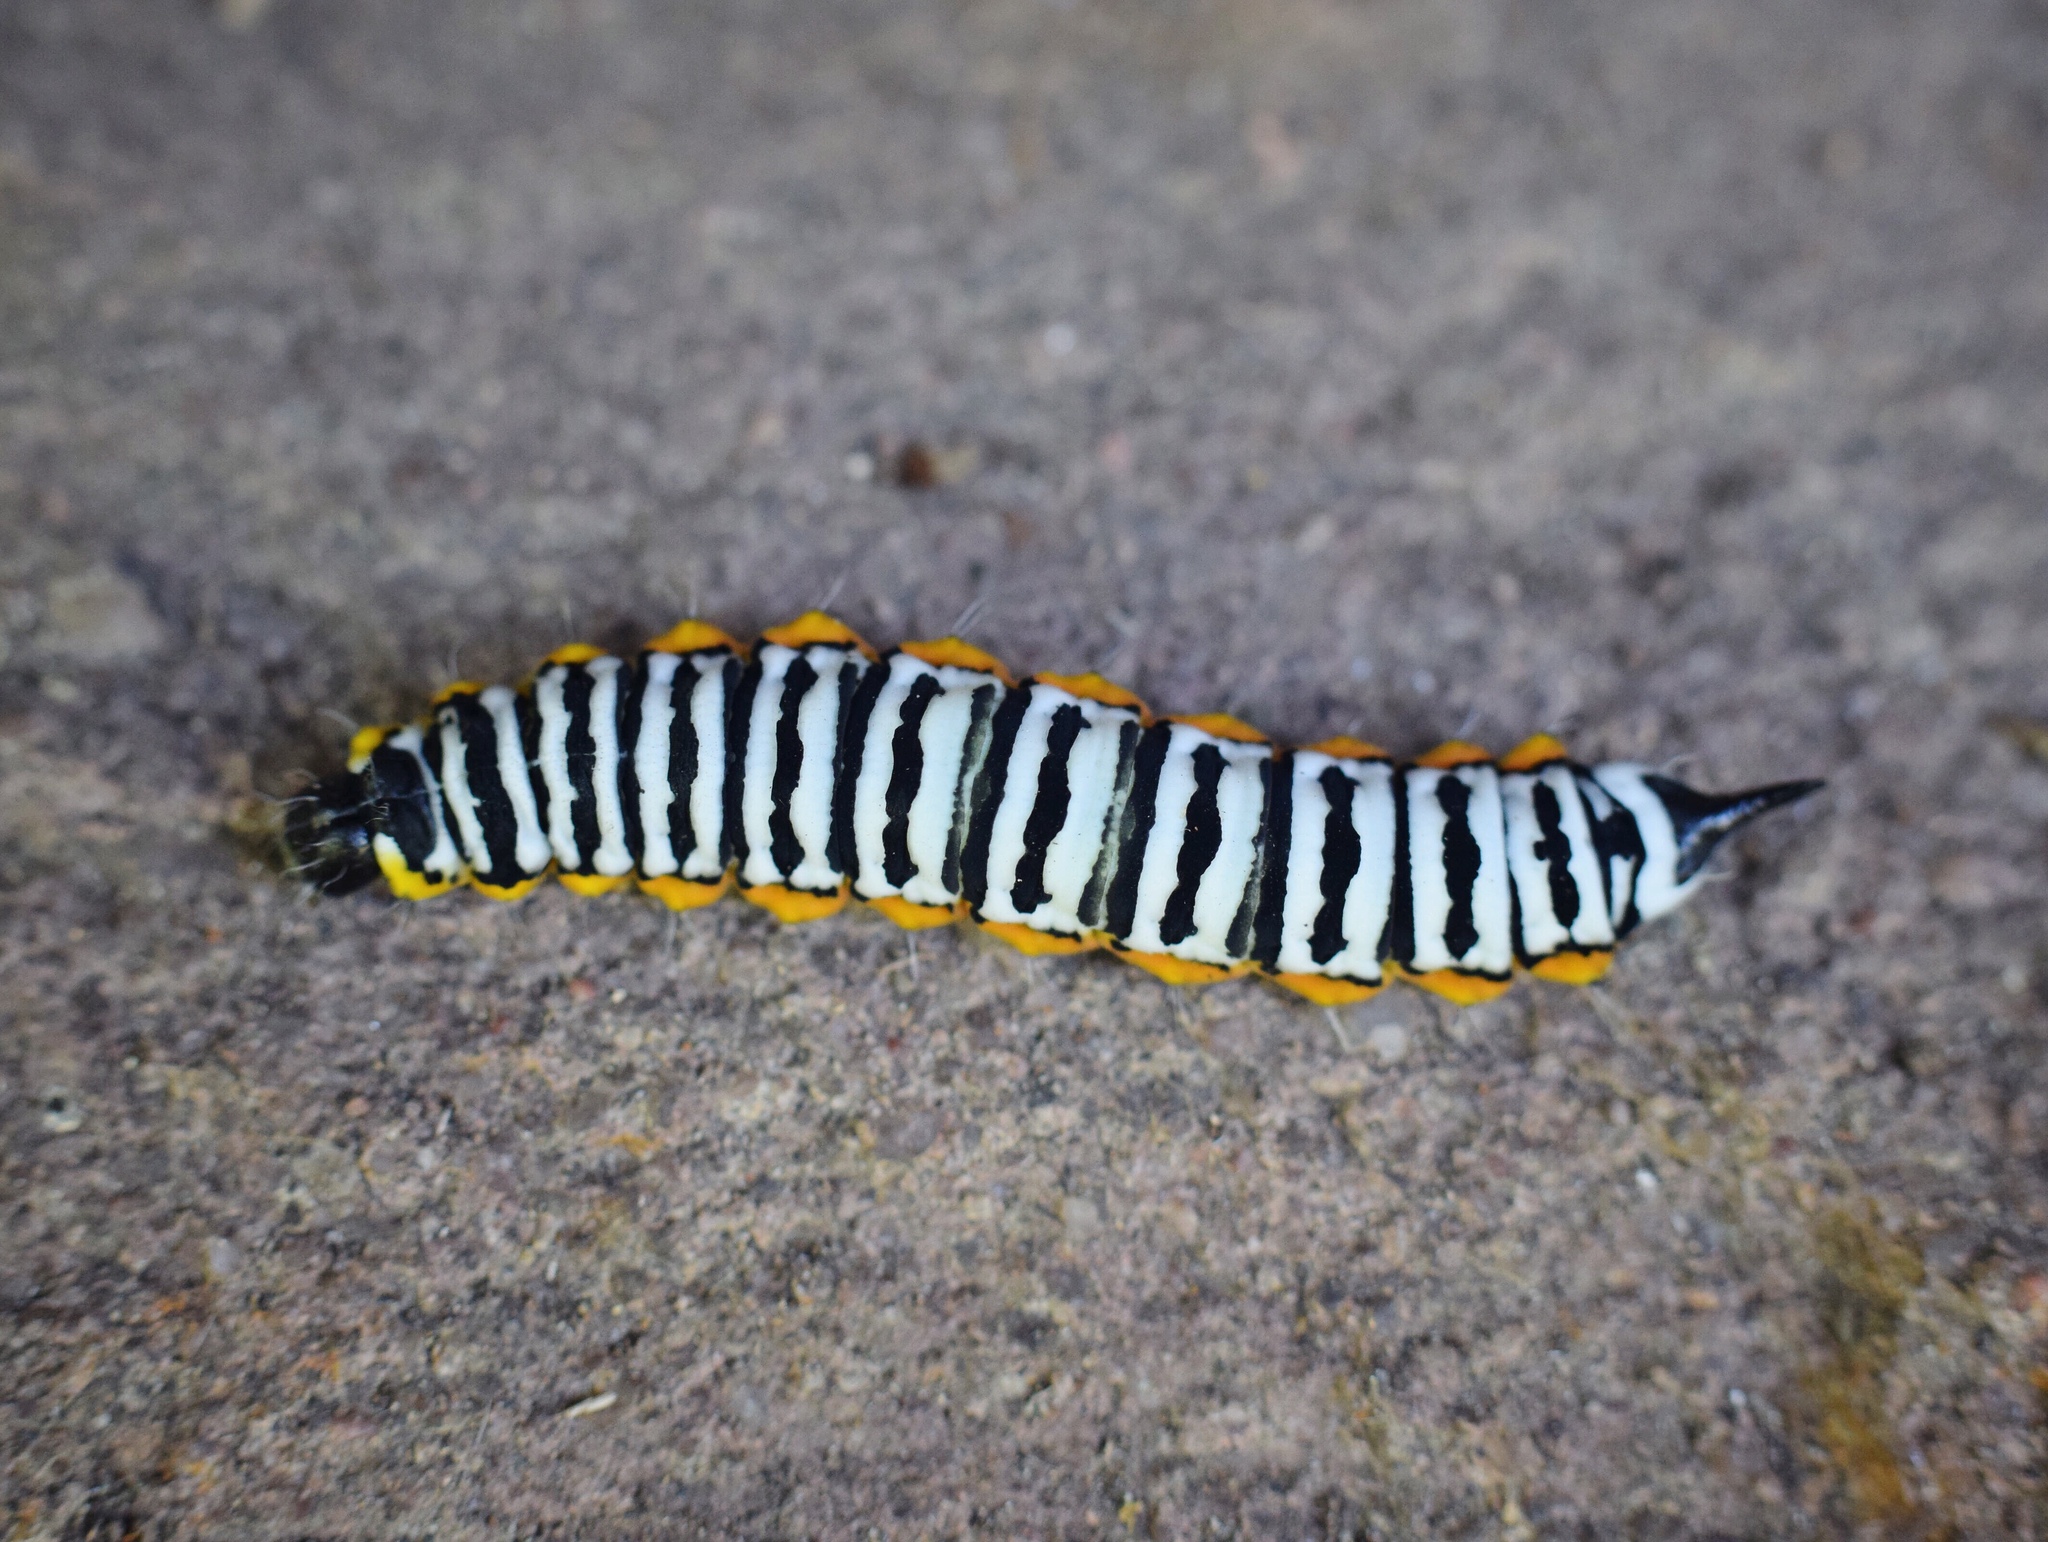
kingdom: Animalia
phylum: Arthropoda
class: Insecta
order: Lepidoptera
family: Saturniidae
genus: Pseudaphelia
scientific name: Pseudaphelia apollinaris
